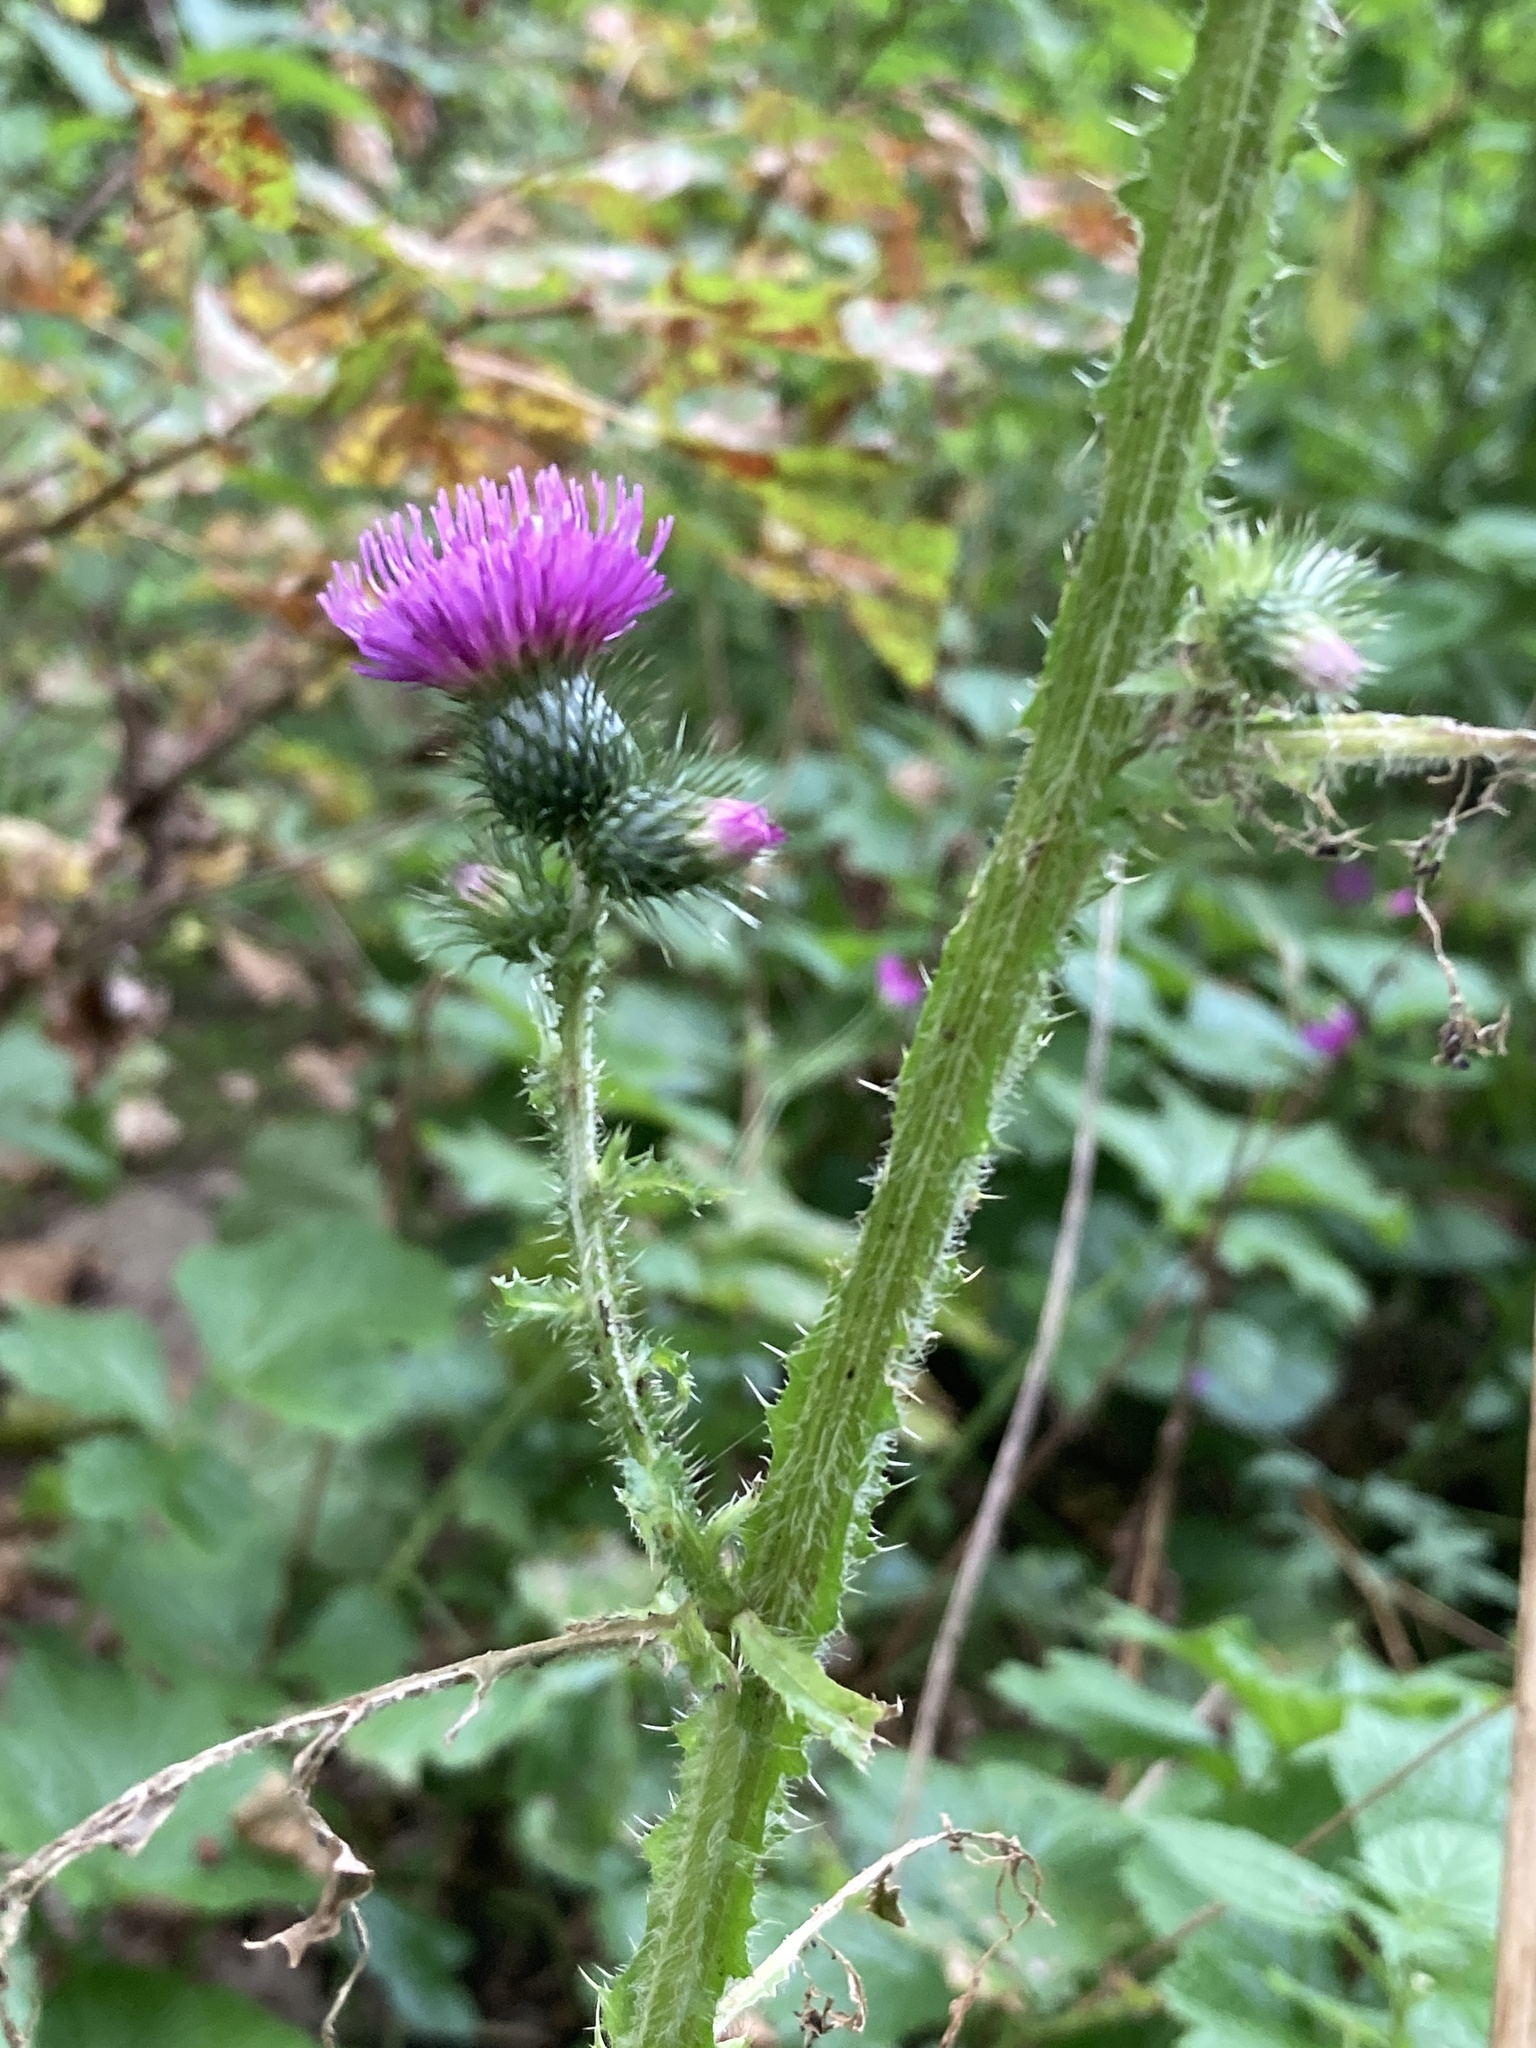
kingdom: Plantae
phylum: Tracheophyta
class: Magnoliopsida
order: Asterales
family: Asteraceae
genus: Carduus
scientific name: Carduus crispus
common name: Welted thistle
